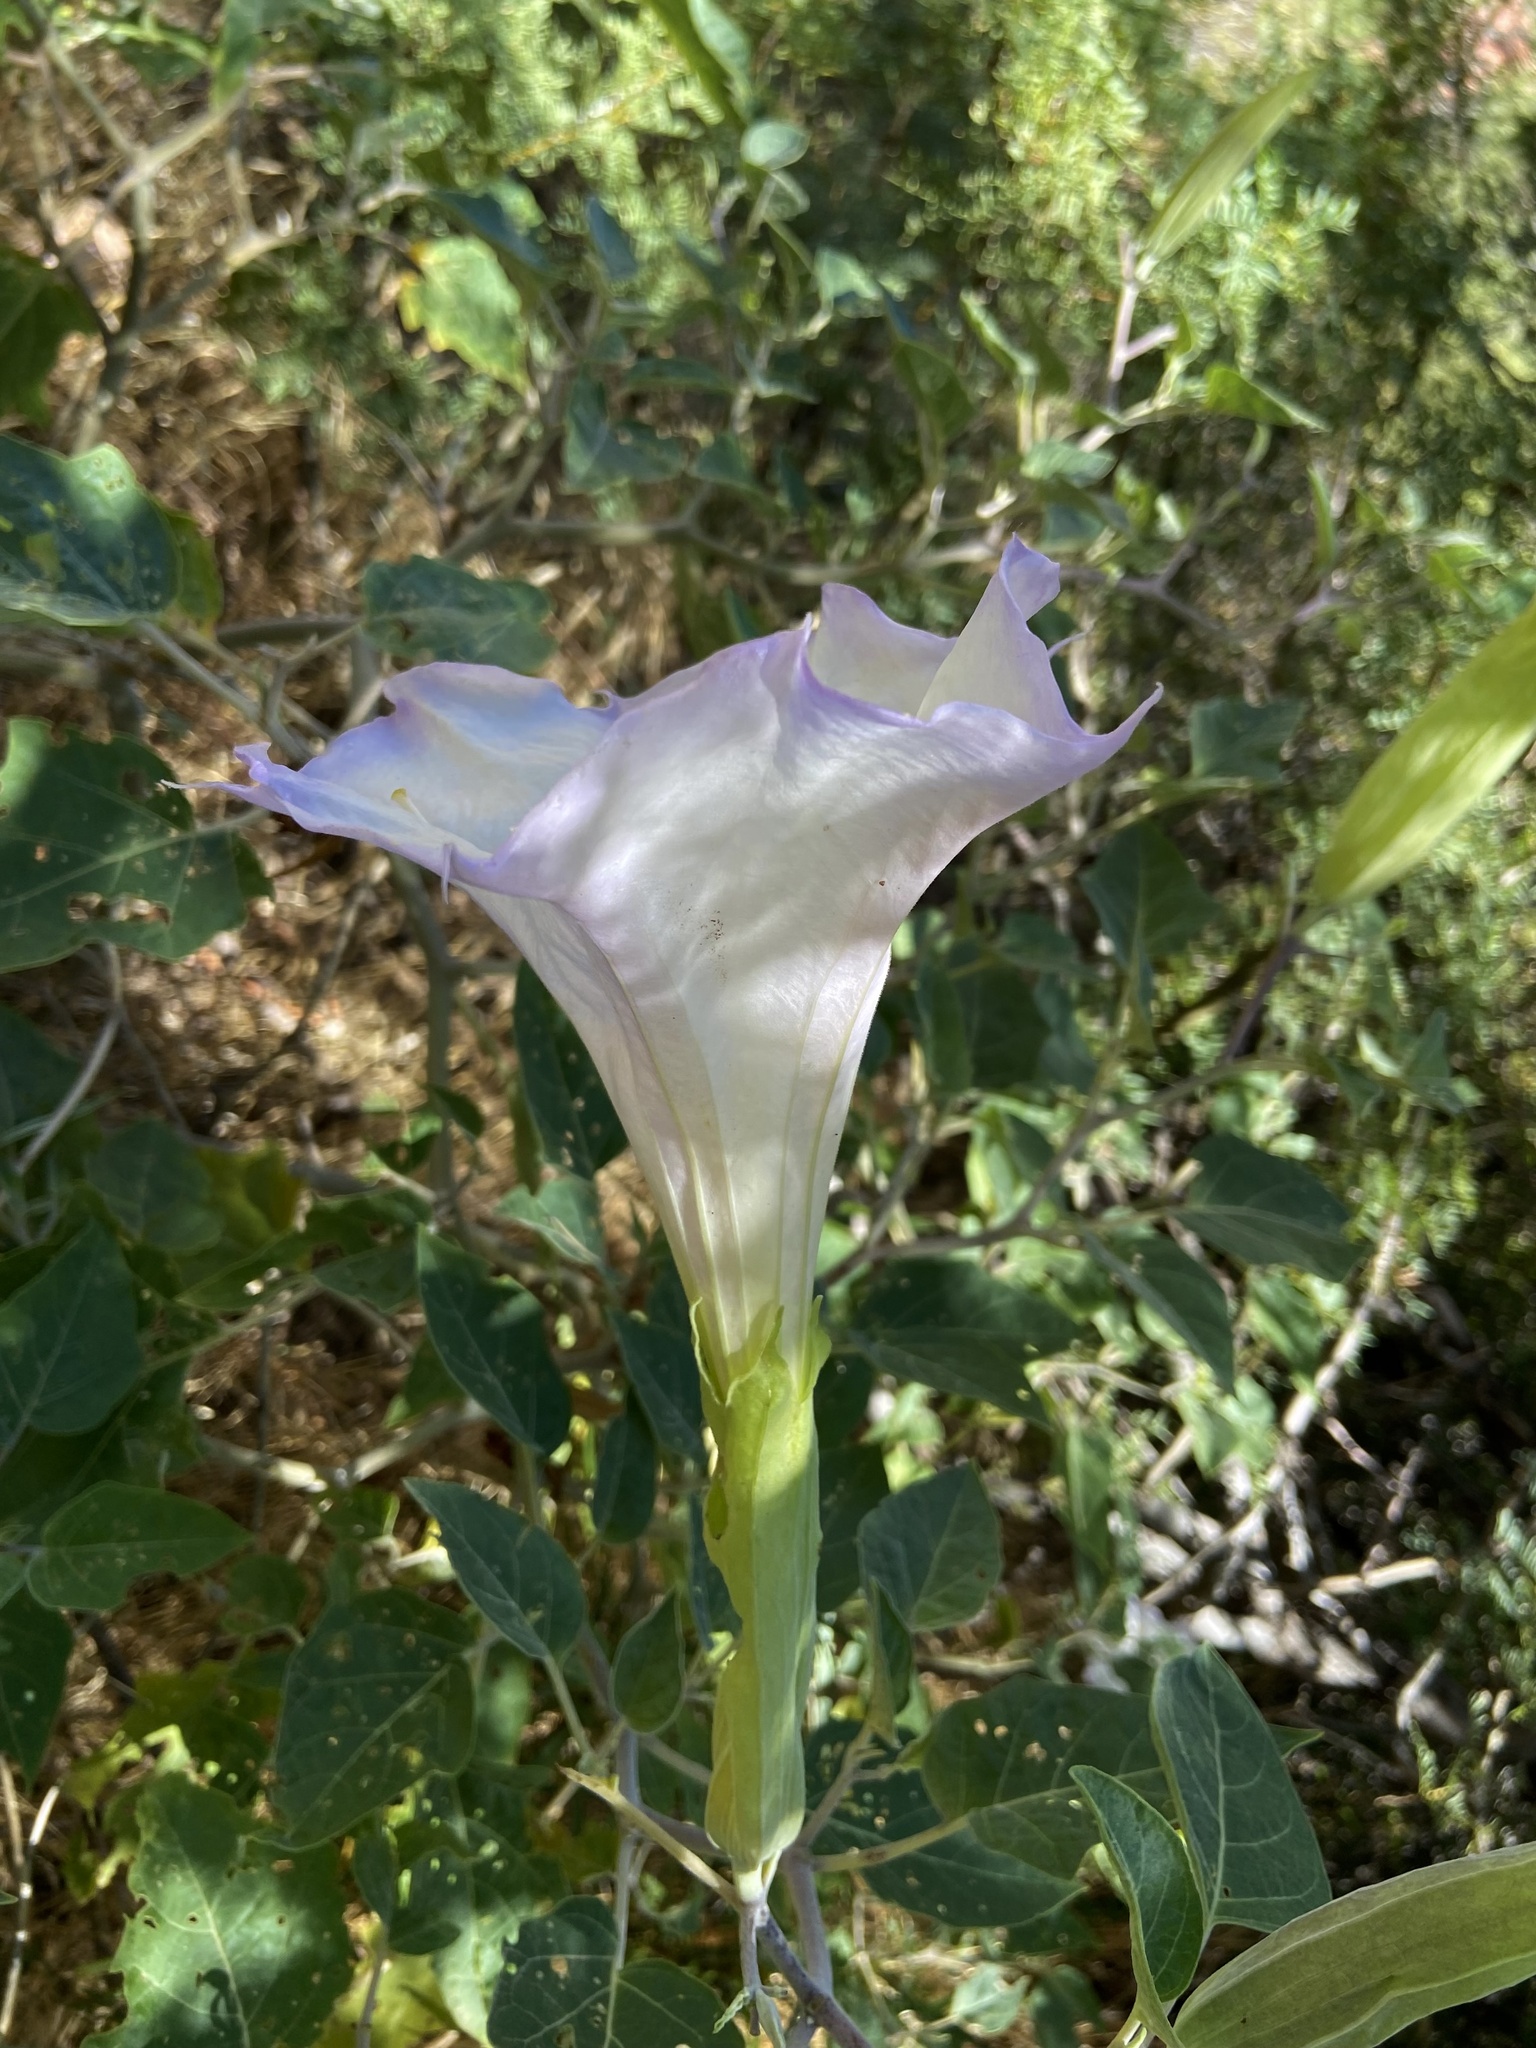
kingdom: Plantae
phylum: Tracheophyta
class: Magnoliopsida
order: Solanales
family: Solanaceae
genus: Datura
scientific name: Datura wrightii
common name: Sacred thorn-apple
